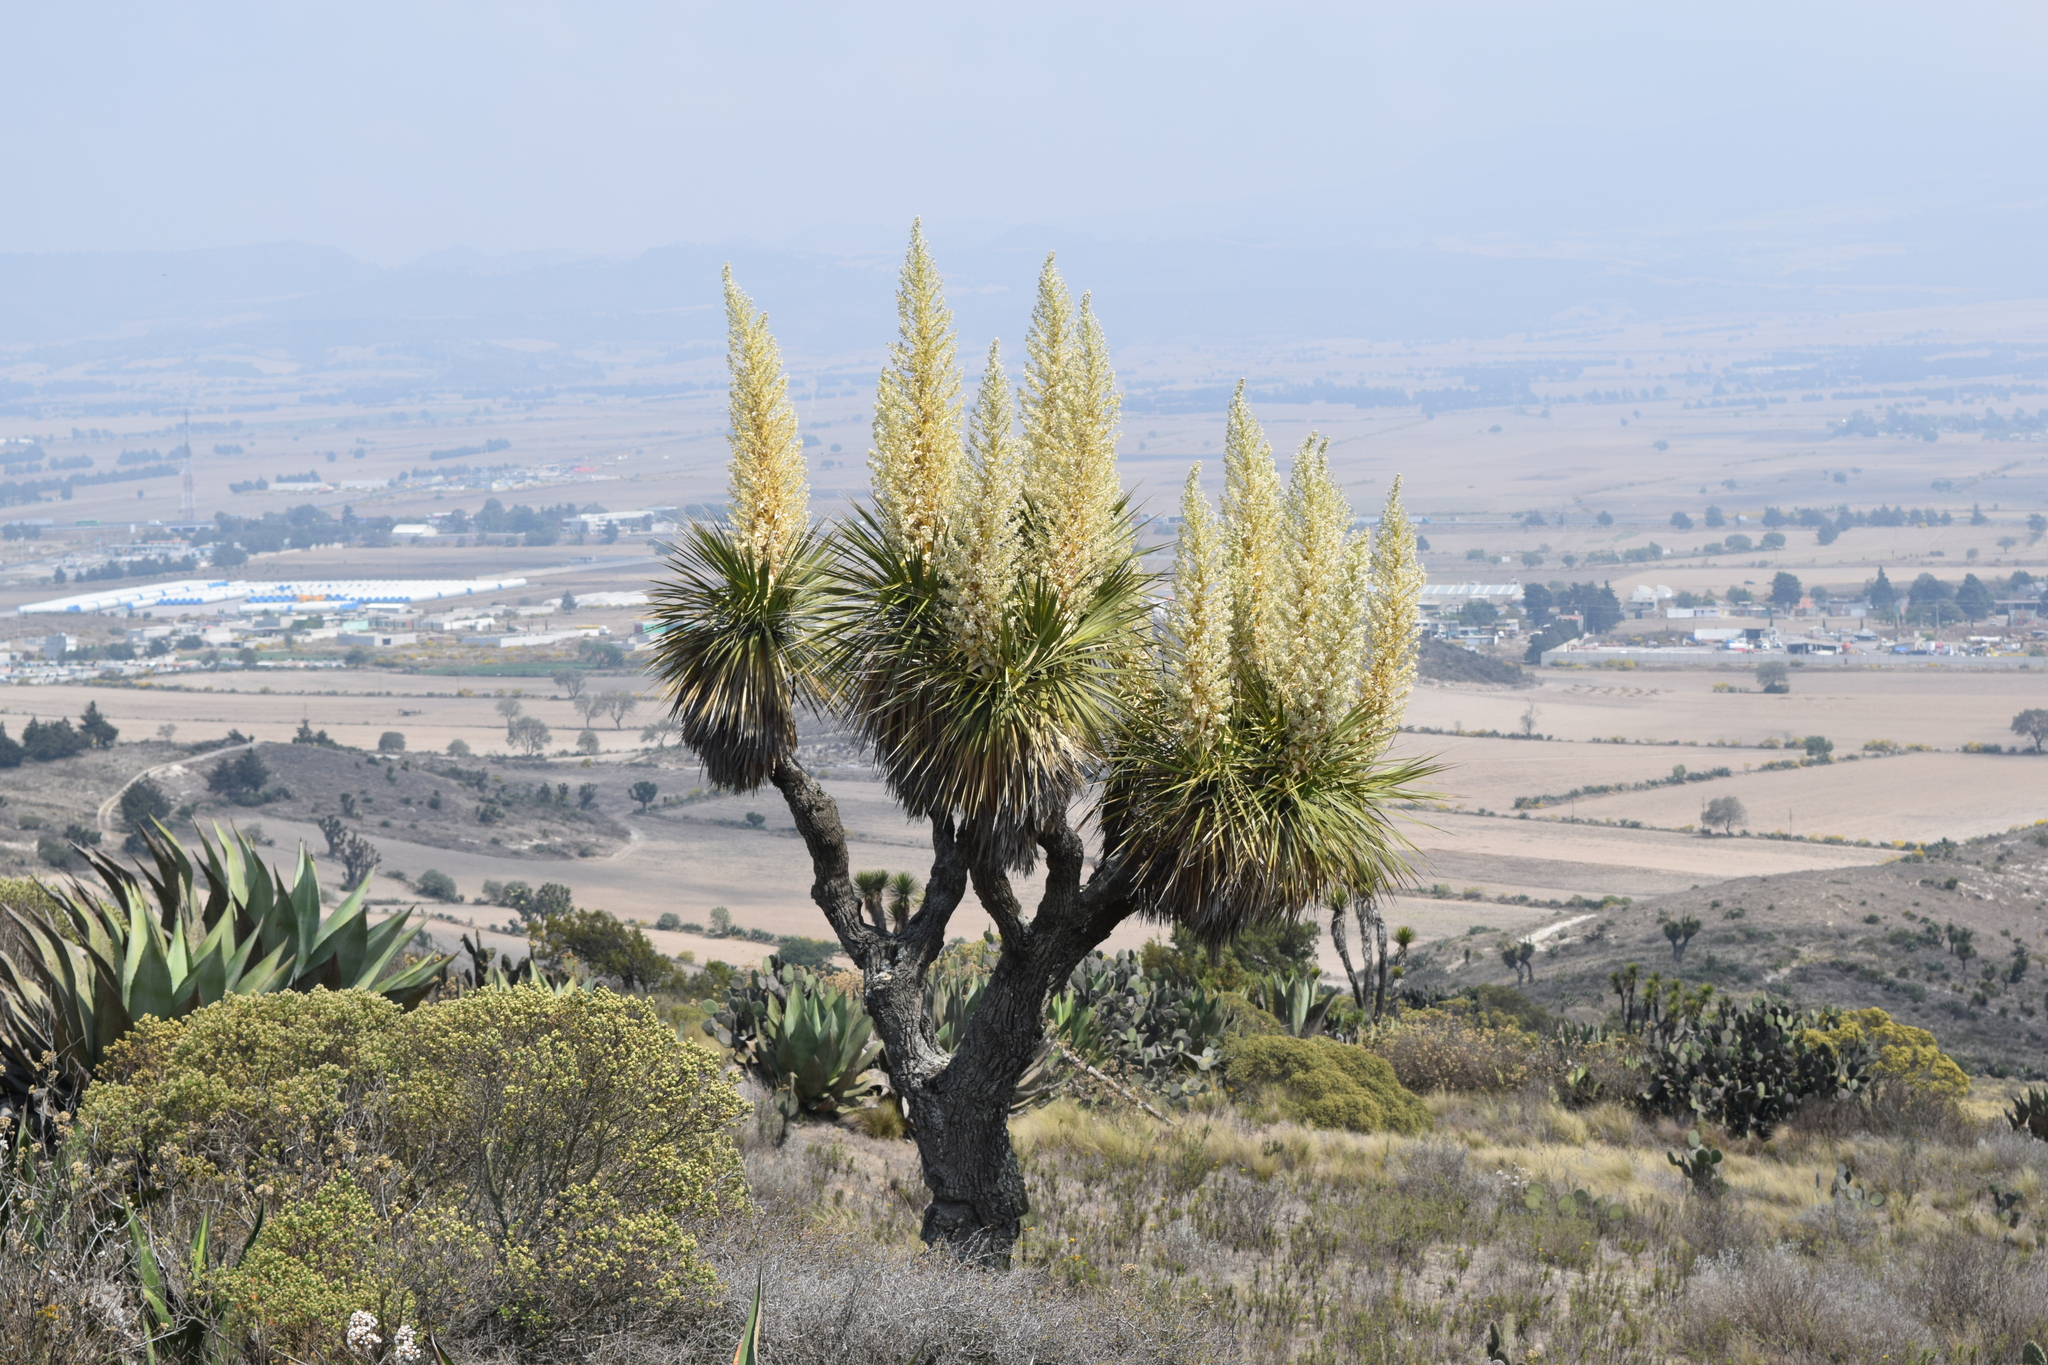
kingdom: Plantae
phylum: Tracheophyta
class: Liliopsida
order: Asparagales
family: Asparagaceae
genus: Nolina
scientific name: Nolina parviflora
